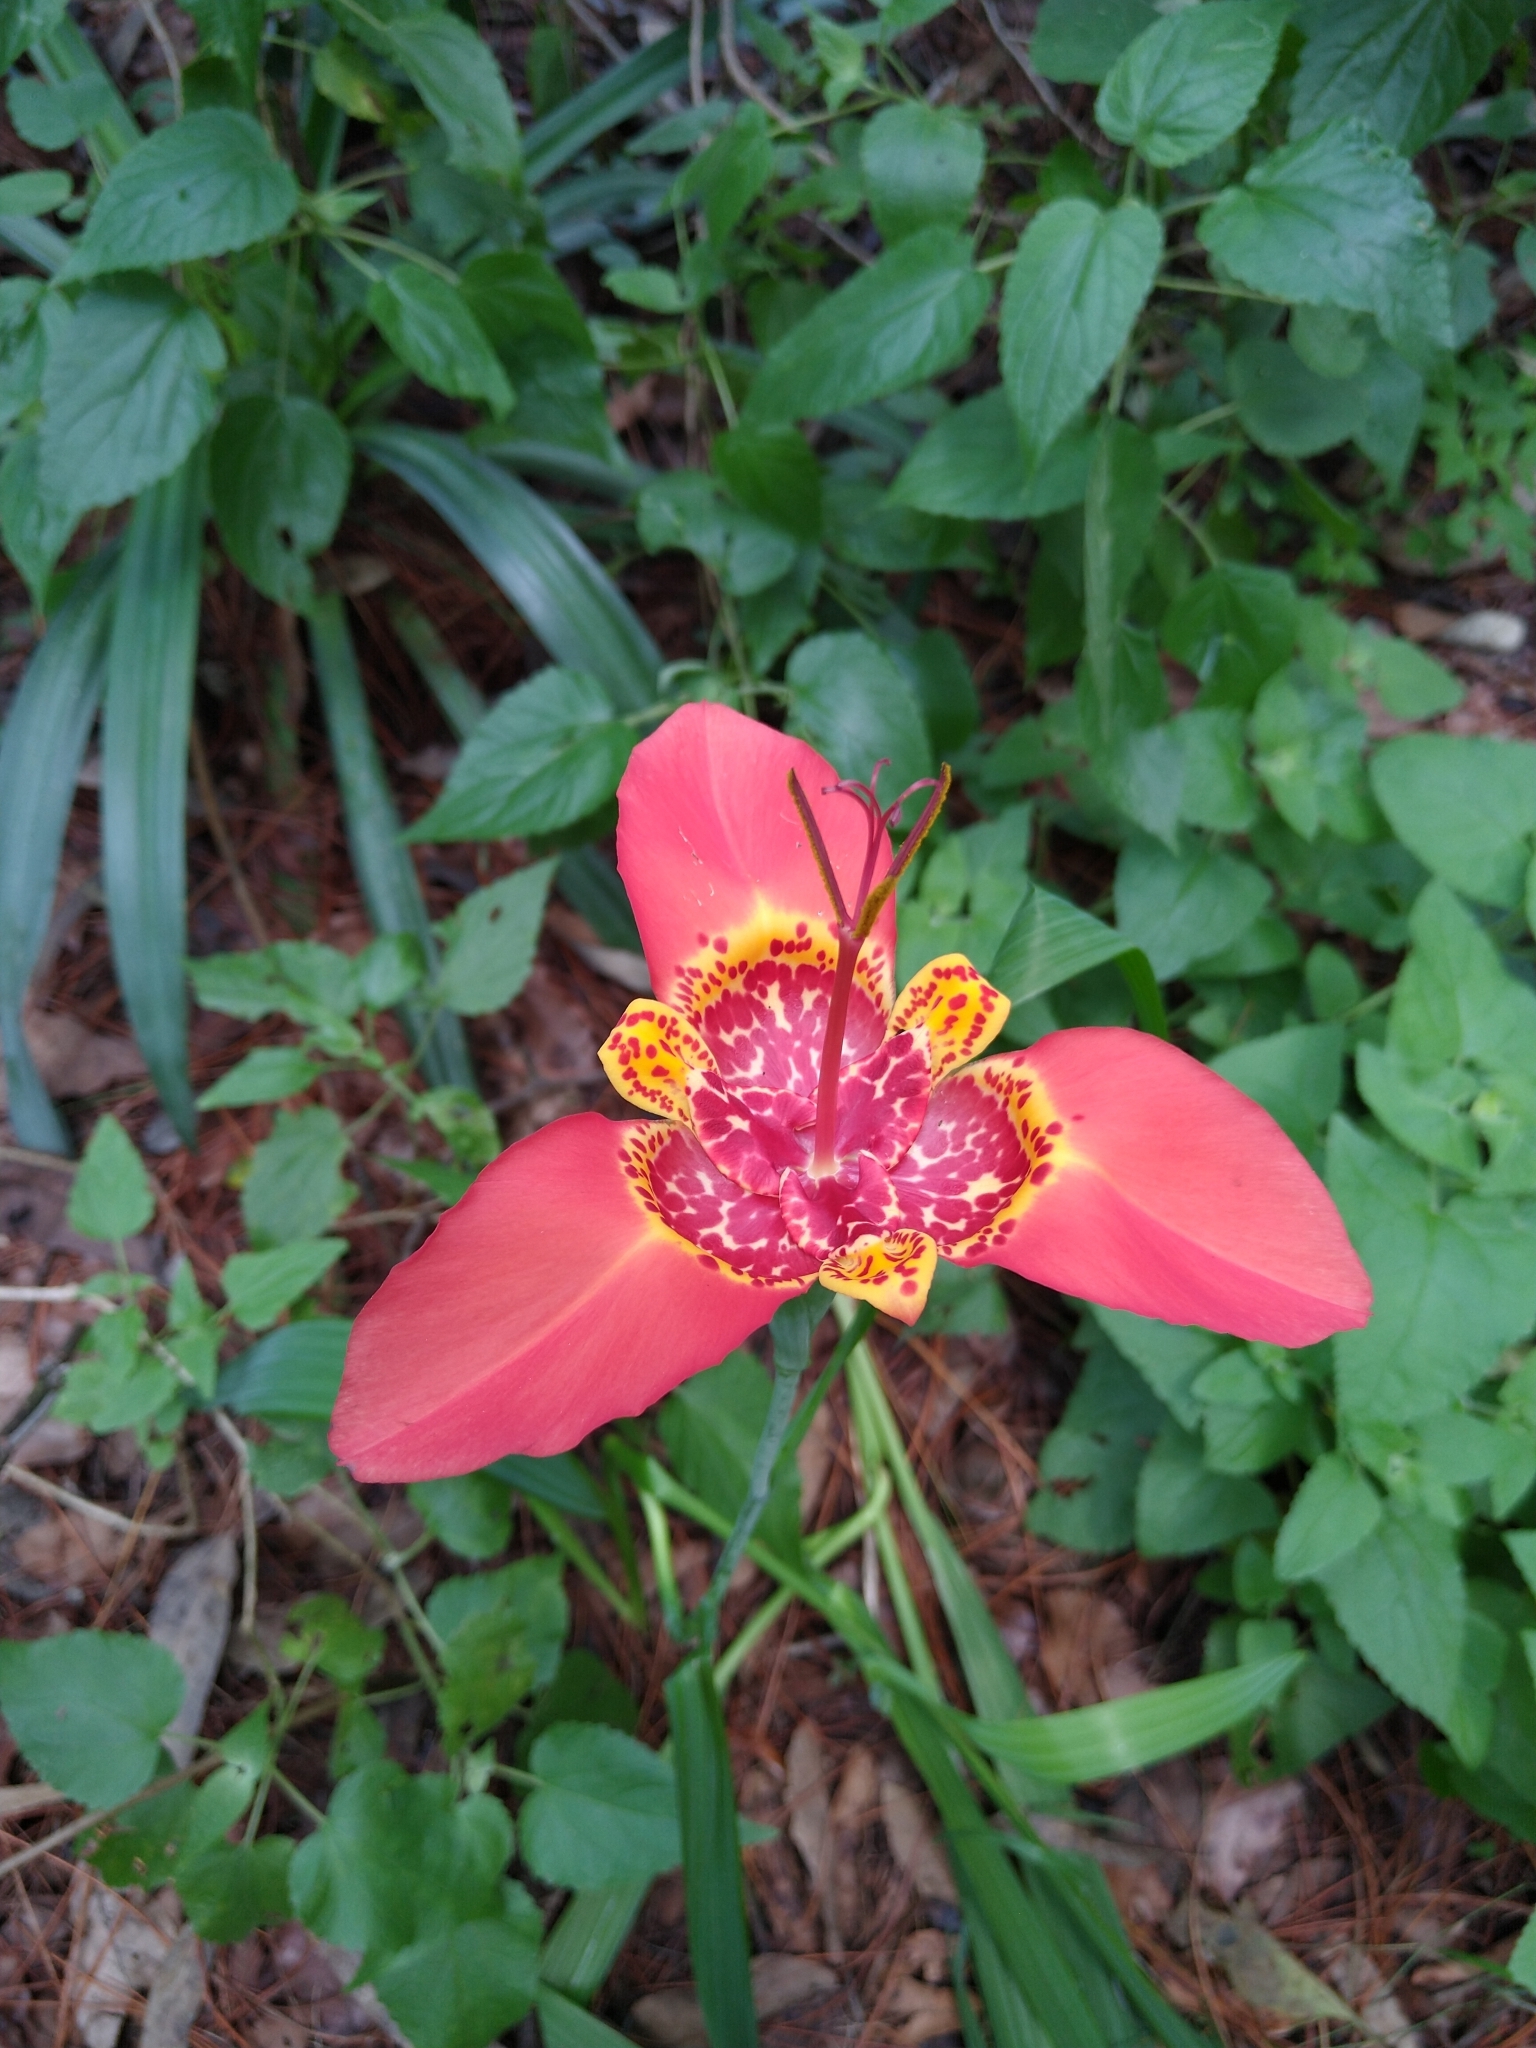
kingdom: Plantae
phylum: Tracheophyta
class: Liliopsida
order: Asparagales
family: Iridaceae
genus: Tigridia
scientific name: Tigridia pavonia
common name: Peacock-flower
